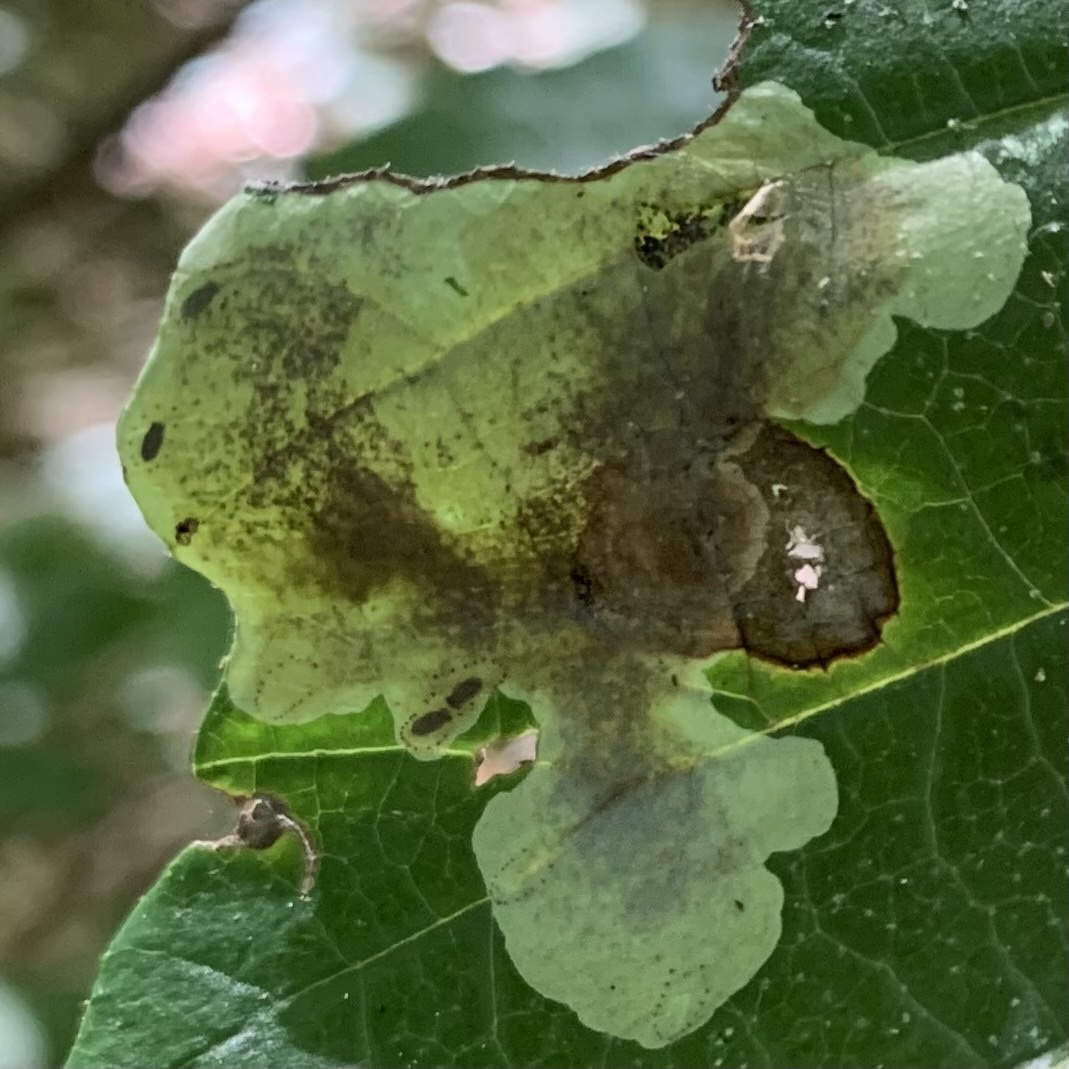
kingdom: Animalia
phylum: Arthropoda
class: Insecta
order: Lepidoptera
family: Gracillariidae
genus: Cameraria
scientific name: Cameraria hamameliella
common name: Witchhazel leafminer
